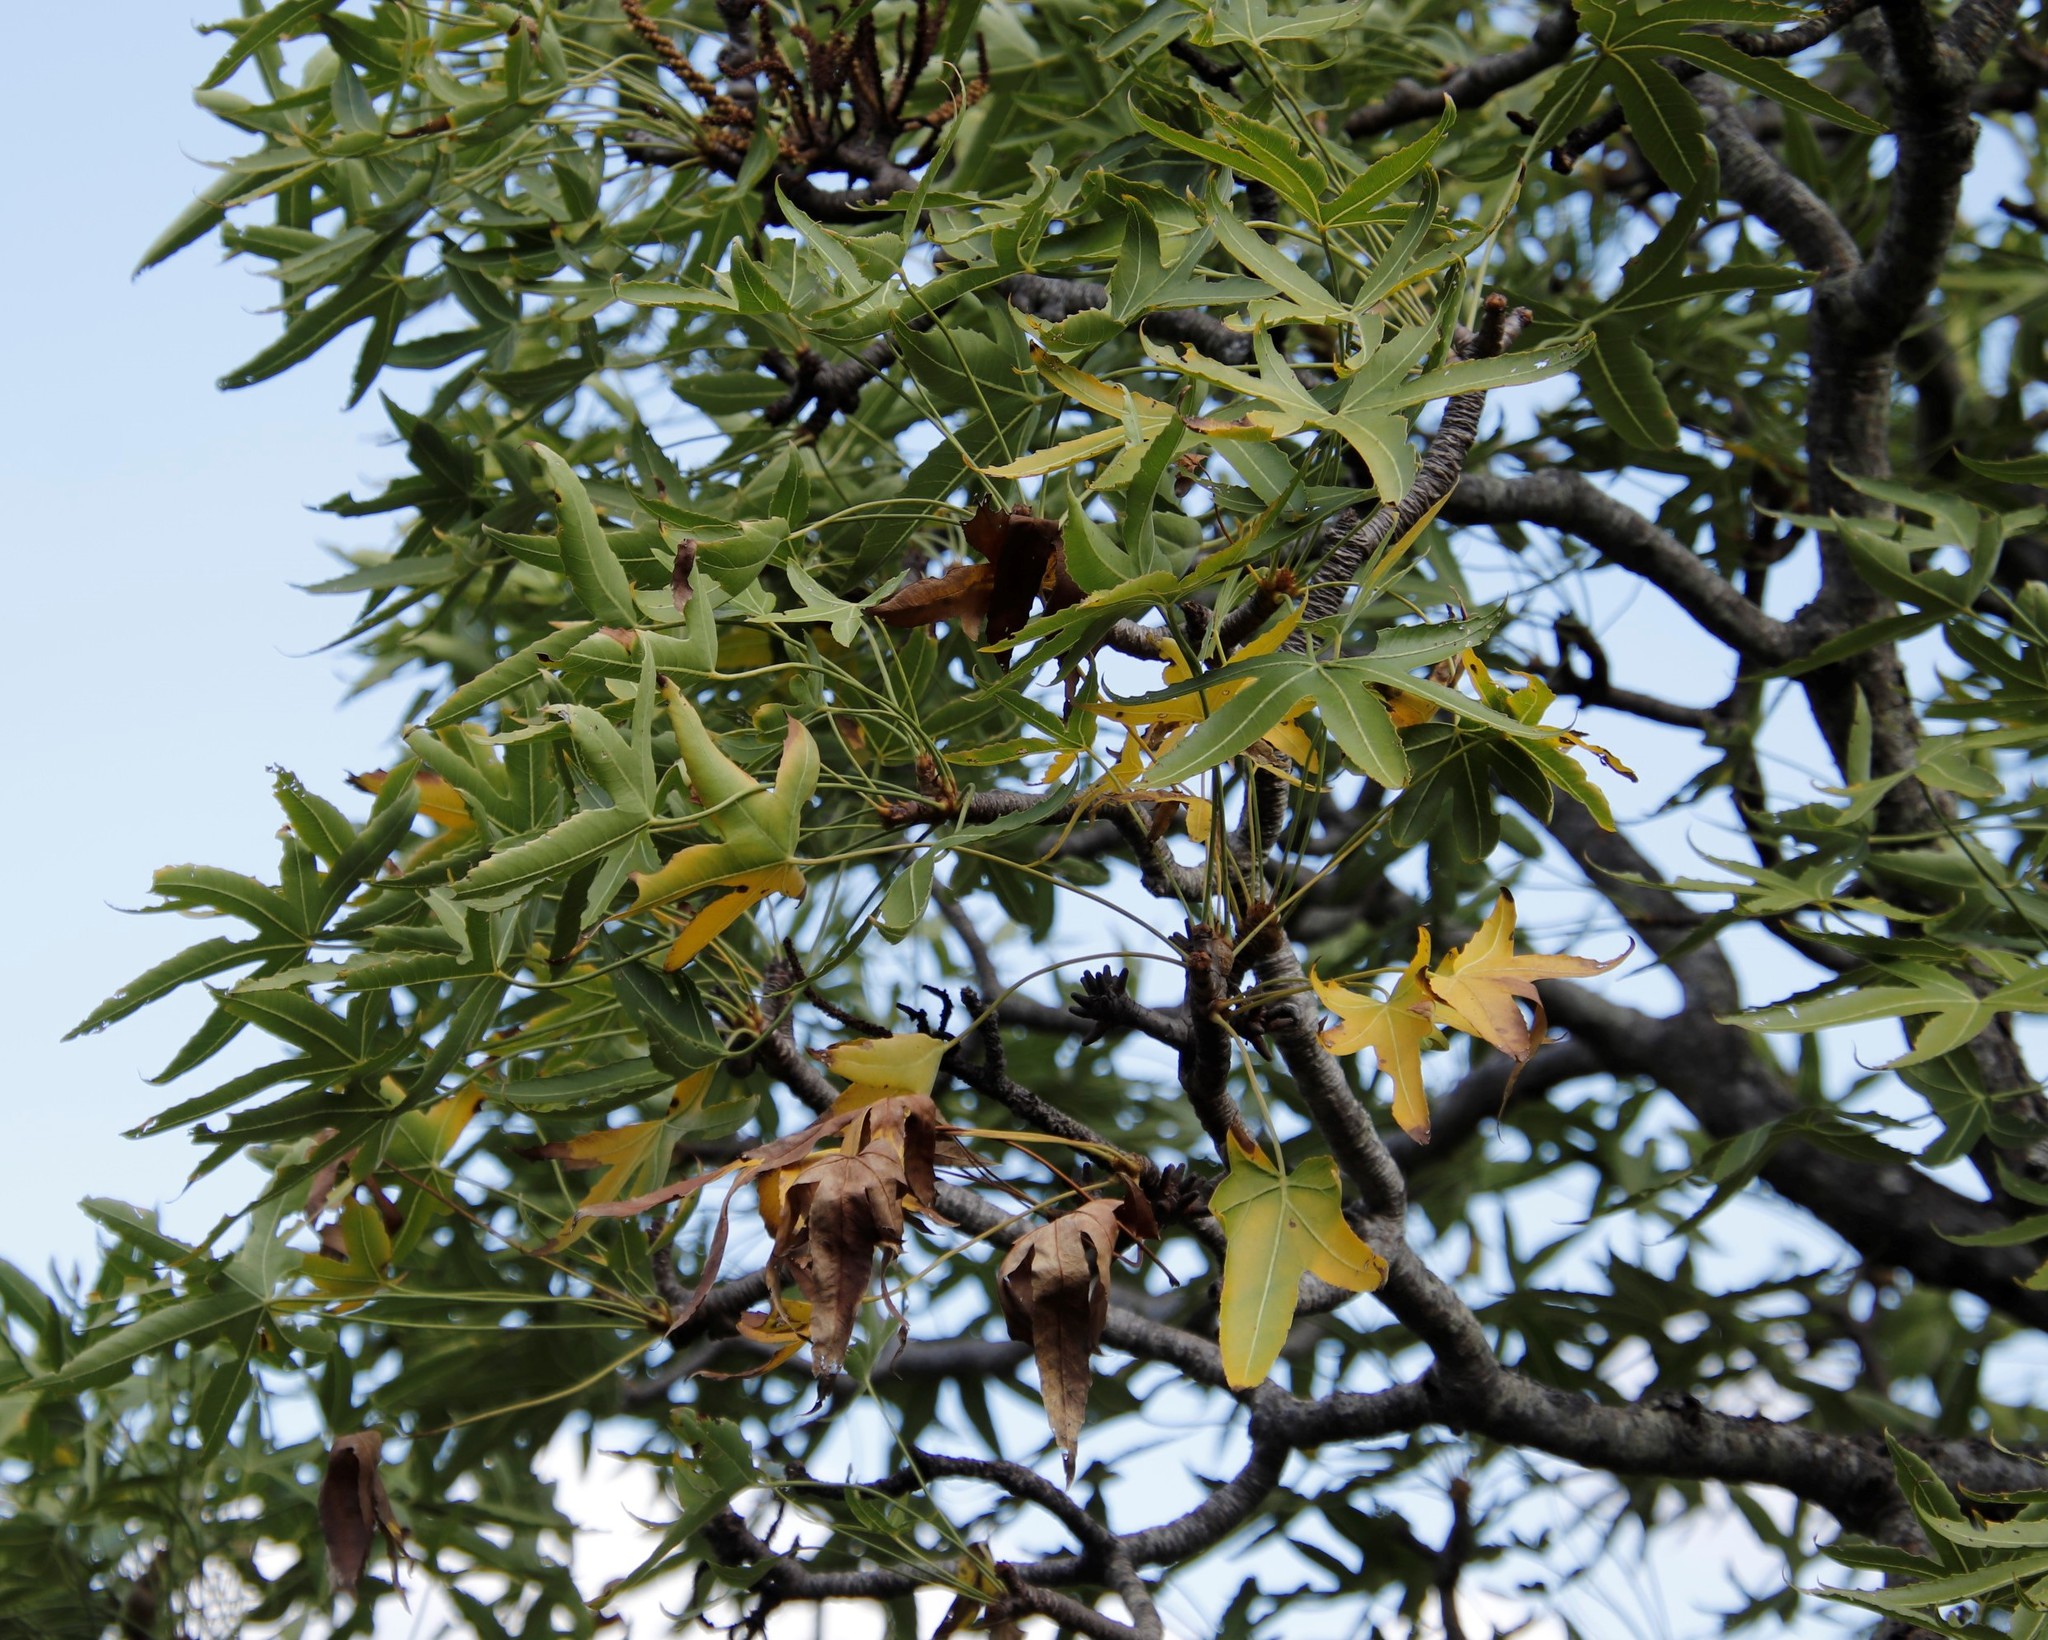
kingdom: Plantae
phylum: Tracheophyta
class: Magnoliopsida
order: Apiales
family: Araliaceae
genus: Cussonia
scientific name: Cussonia natalensis
